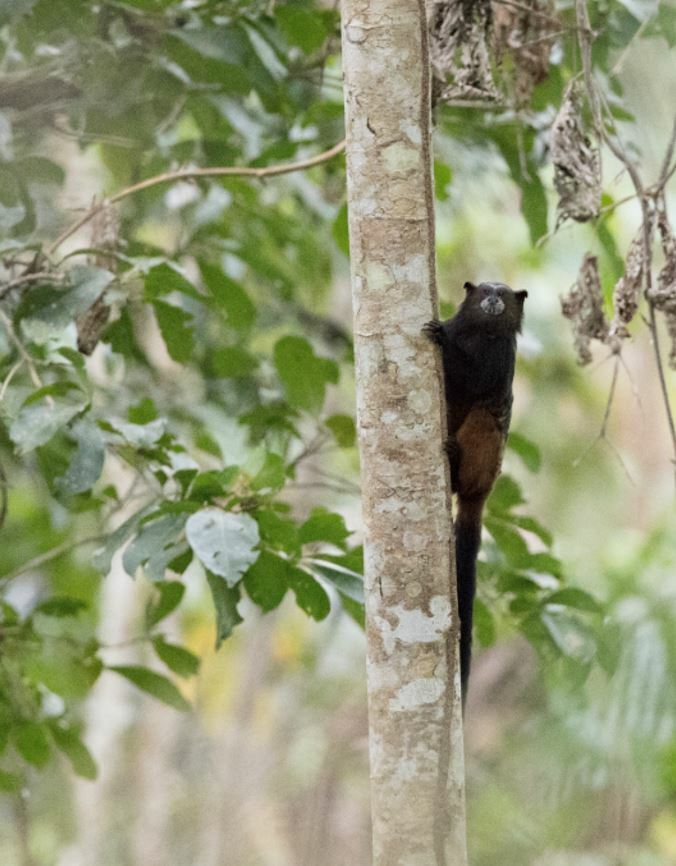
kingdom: Animalia
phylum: Chordata
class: Mammalia
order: Primates
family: Callitrichidae
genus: Leontocebus
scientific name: Leontocebus weddelli
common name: Weddell's saddle-back tamarin
